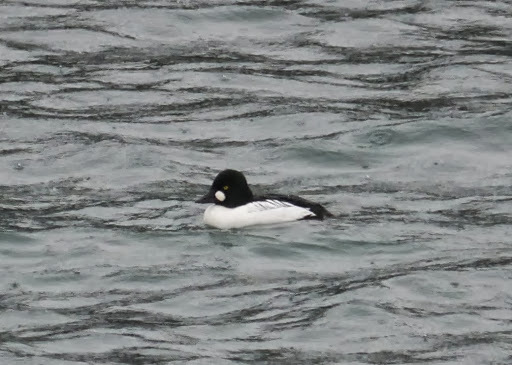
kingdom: Animalia
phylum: Chordata
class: Aves
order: Anseriformes
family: Anatidae
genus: Bucephala
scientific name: Bucephala clangula
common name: Common goldeneye
